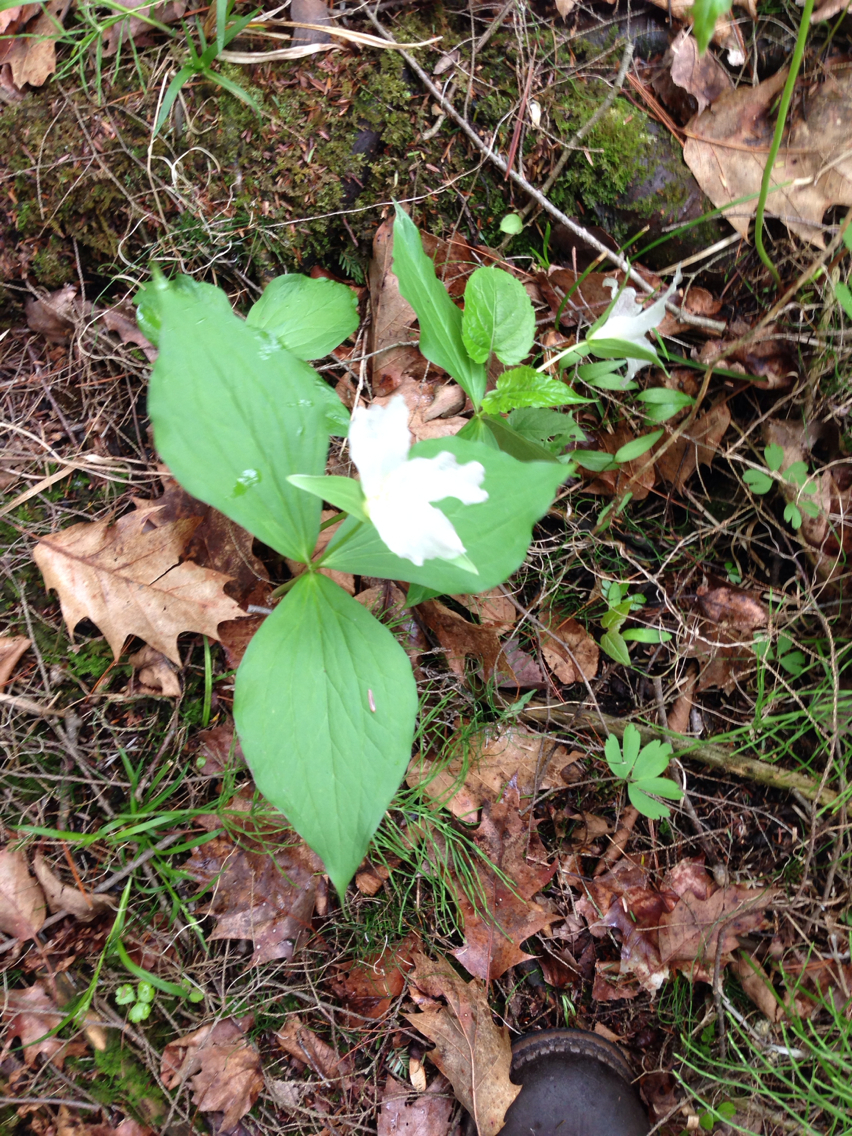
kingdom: Plantae
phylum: Tracheophyta
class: Liliopsida
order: Liliales
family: Melanthiaceae
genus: Trillium
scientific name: Trillium grandiflorum
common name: Great white trillium
